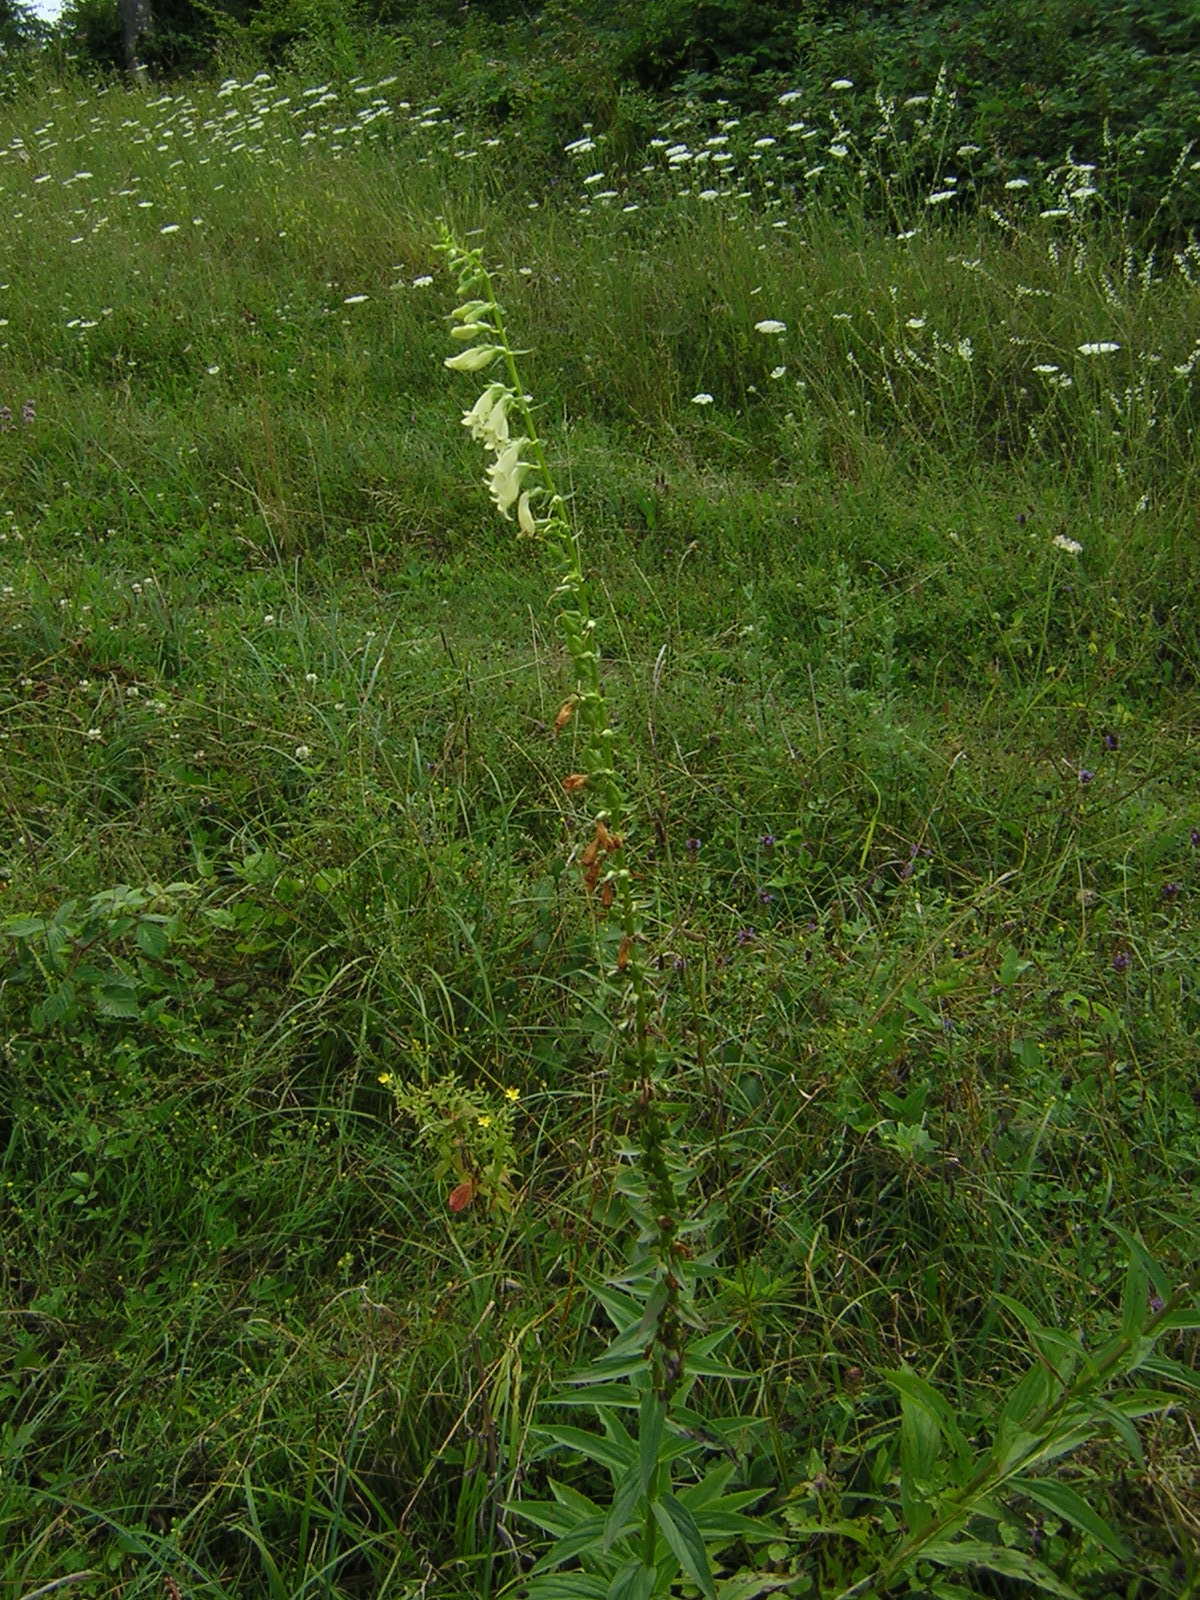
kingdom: Plantae
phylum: Tracheophyta
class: Magnoliopsida
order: Lamiales
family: Plantaginaceae
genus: Digitalis
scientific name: Digitalis lutea
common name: Straw foxglove
